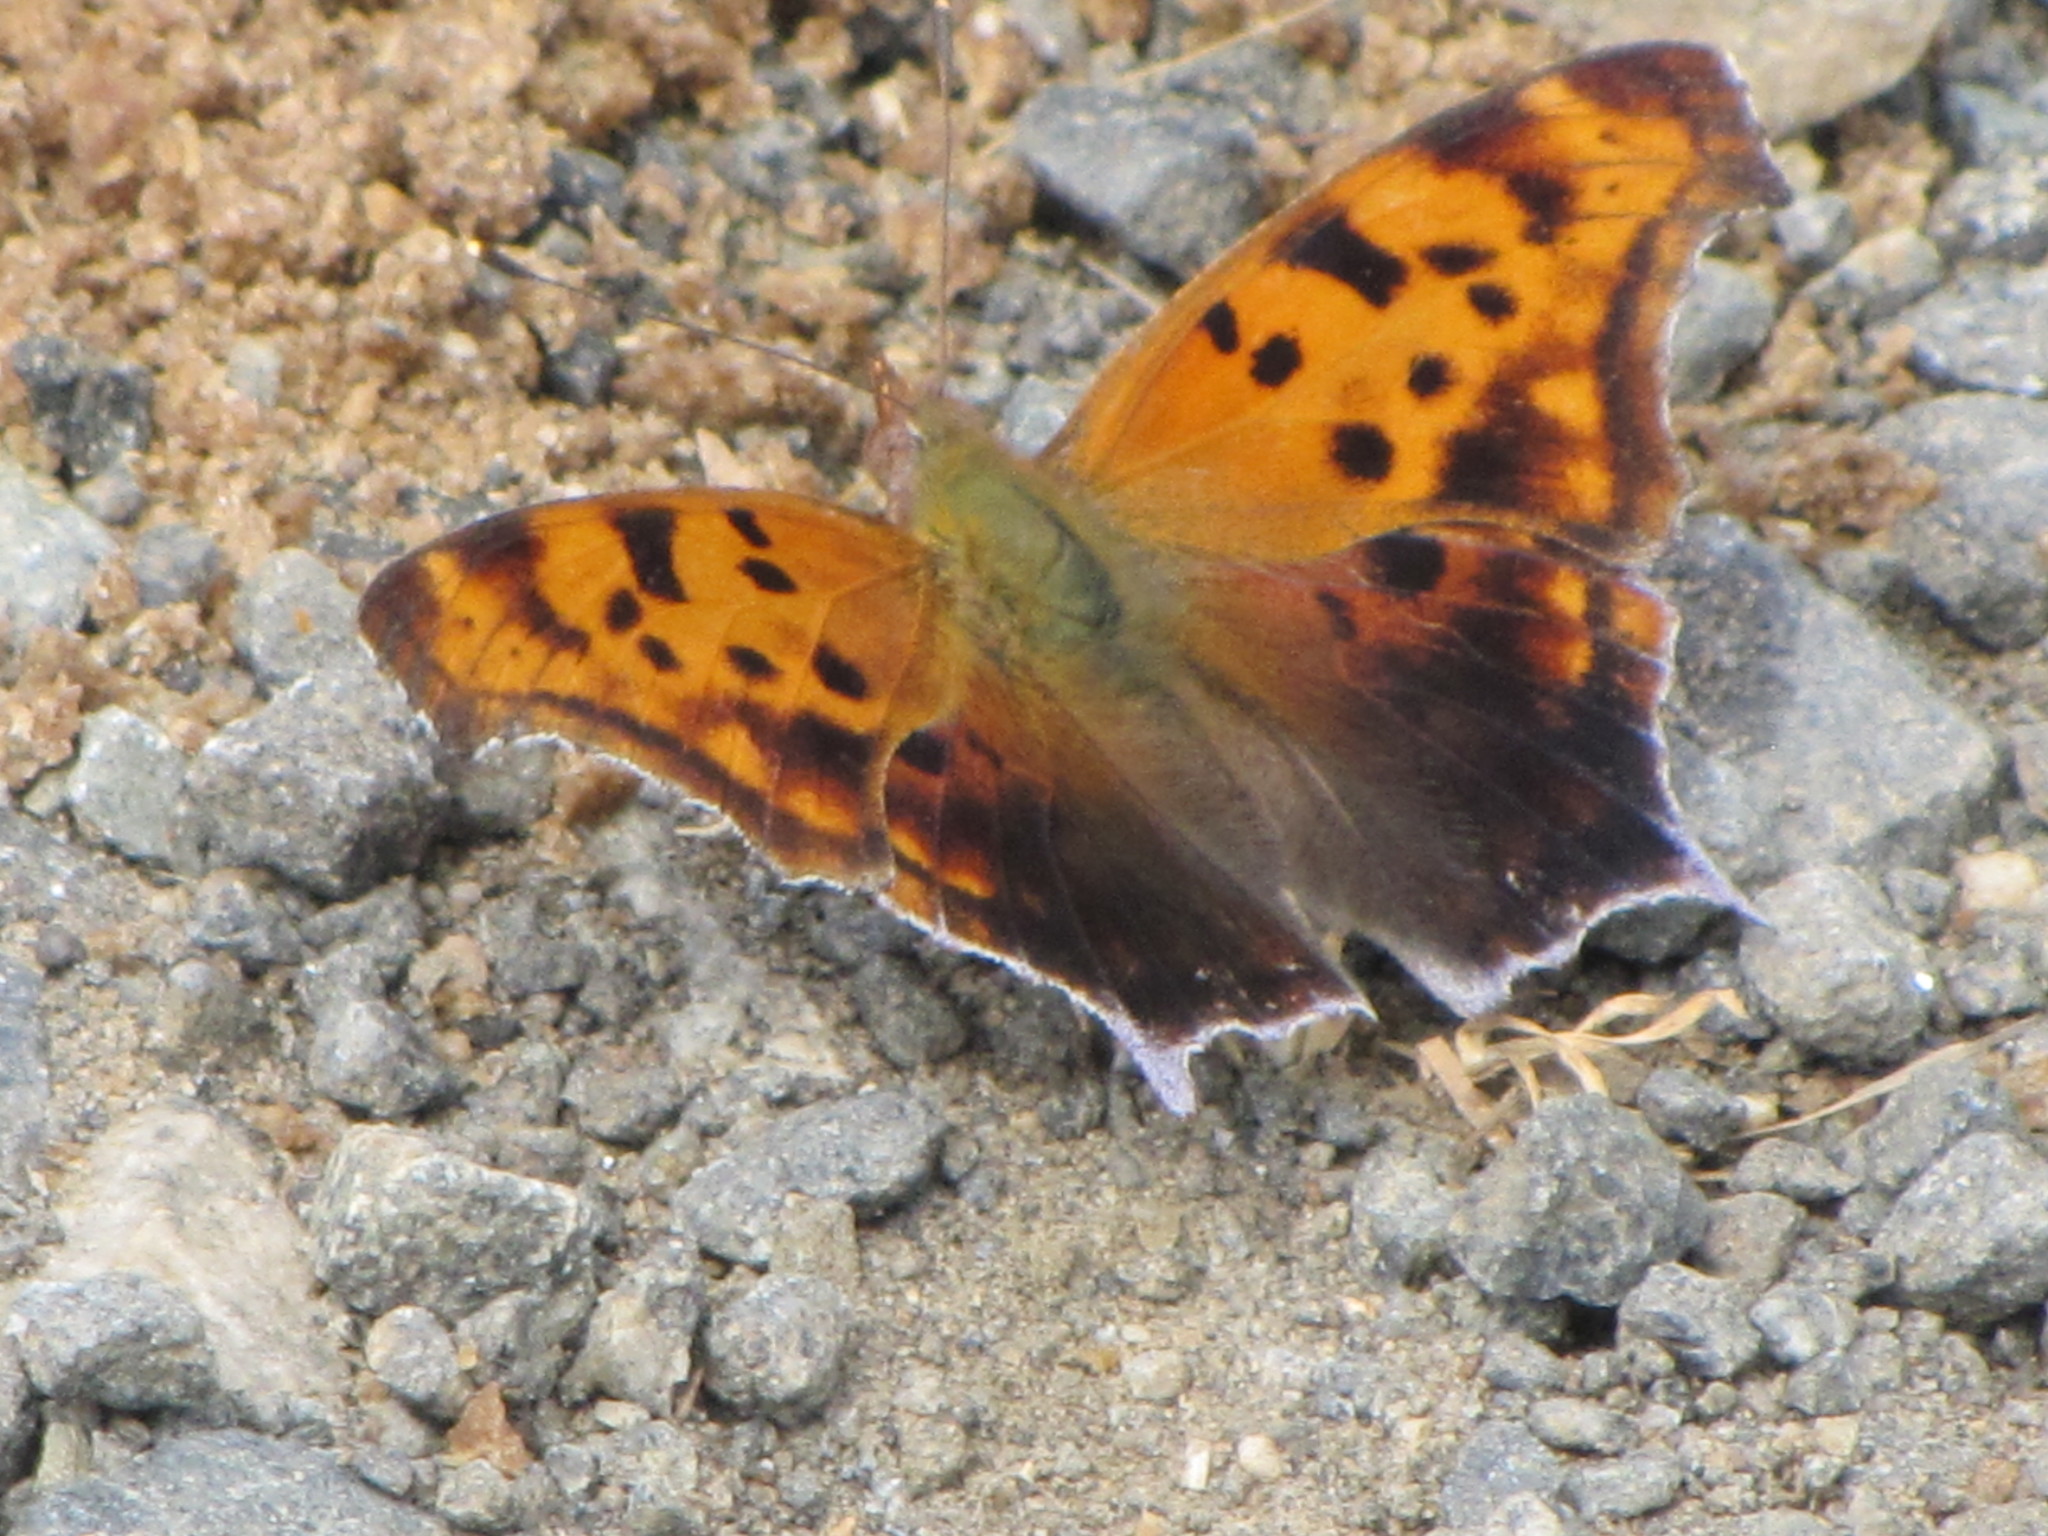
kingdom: Animalia
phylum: Arthropoda
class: Insecta
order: Lepidoptera
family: Nymphalidae
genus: Polygonia
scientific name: Polygonia interrogationis
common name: Question mark
